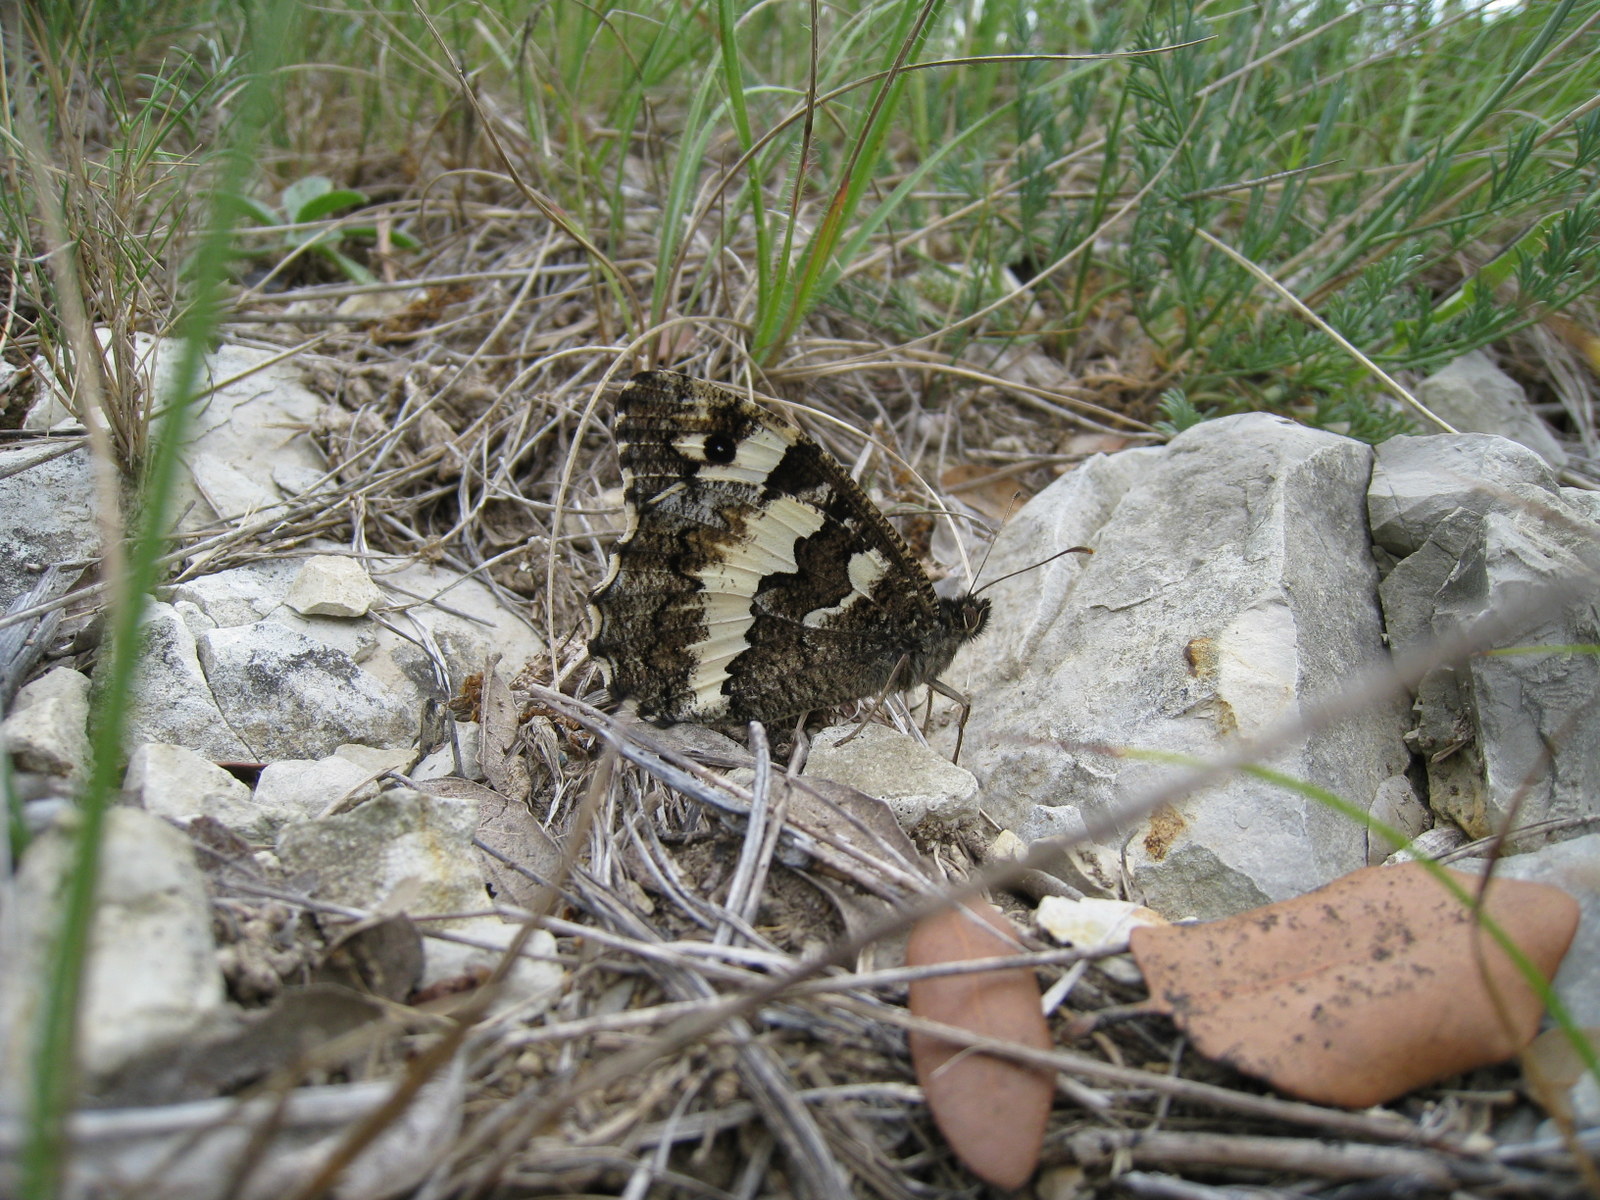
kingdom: Animalia
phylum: Arthropoda
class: Insecta
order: Lepidoptera
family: Lycaenidae
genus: Loweia
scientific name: Loweia tityrus
